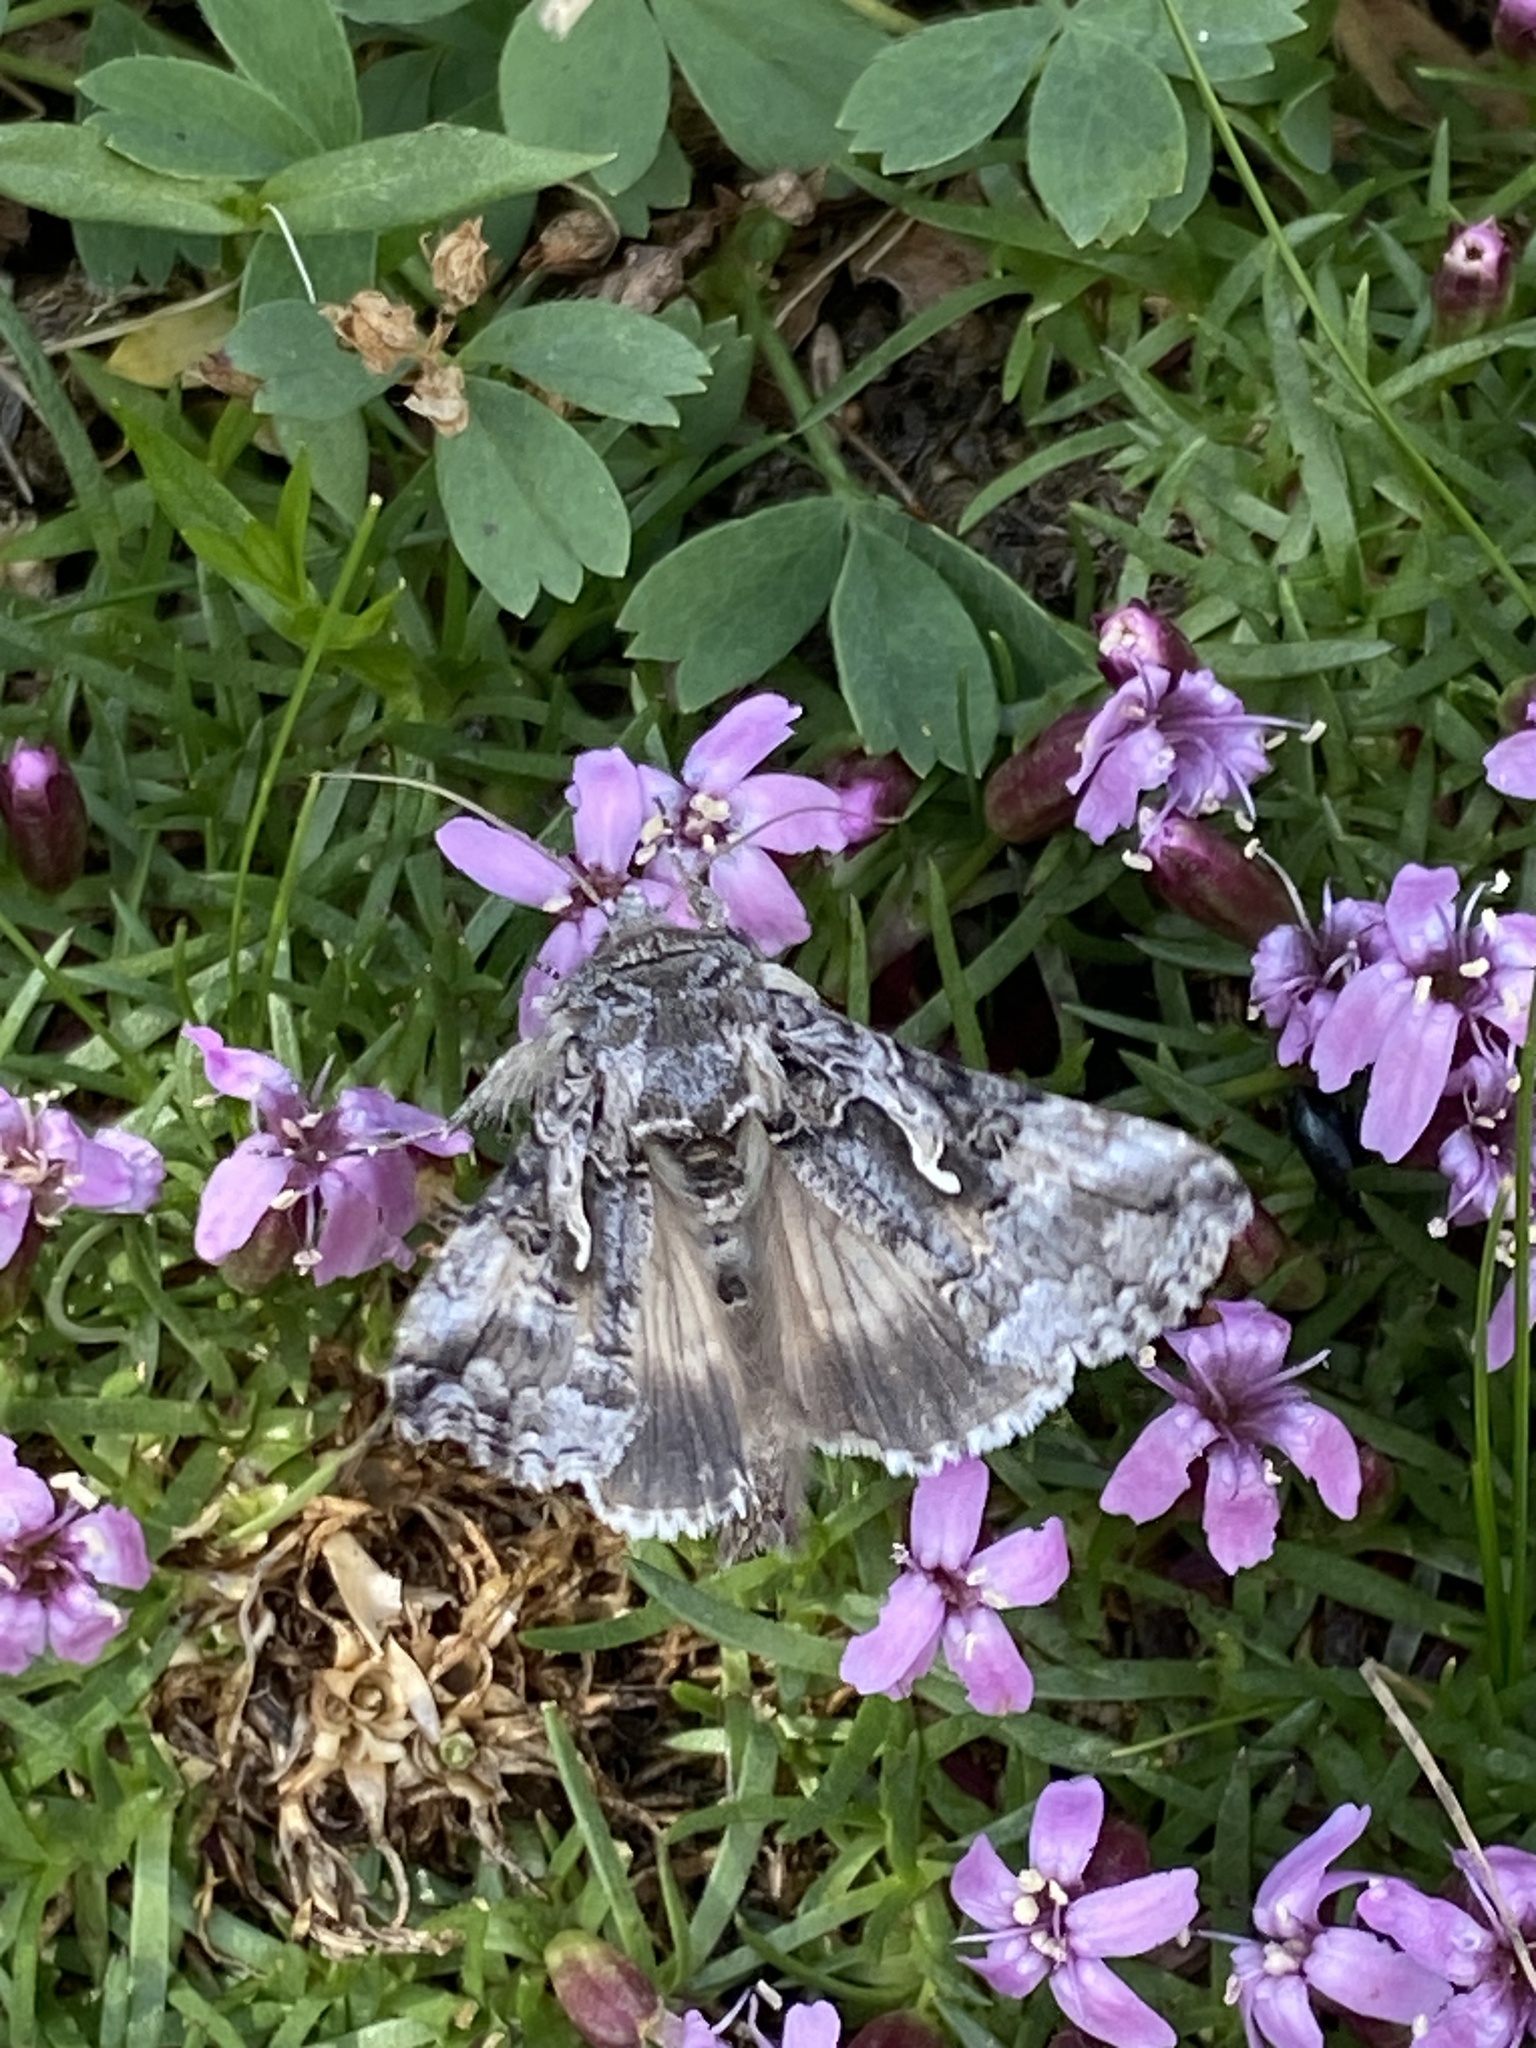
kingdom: Animalia
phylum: Arthropoda
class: Insecta
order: Lepidoptera
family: Noctuidae
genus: Autographa
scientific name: Autographa californica
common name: Alfalfa looper
